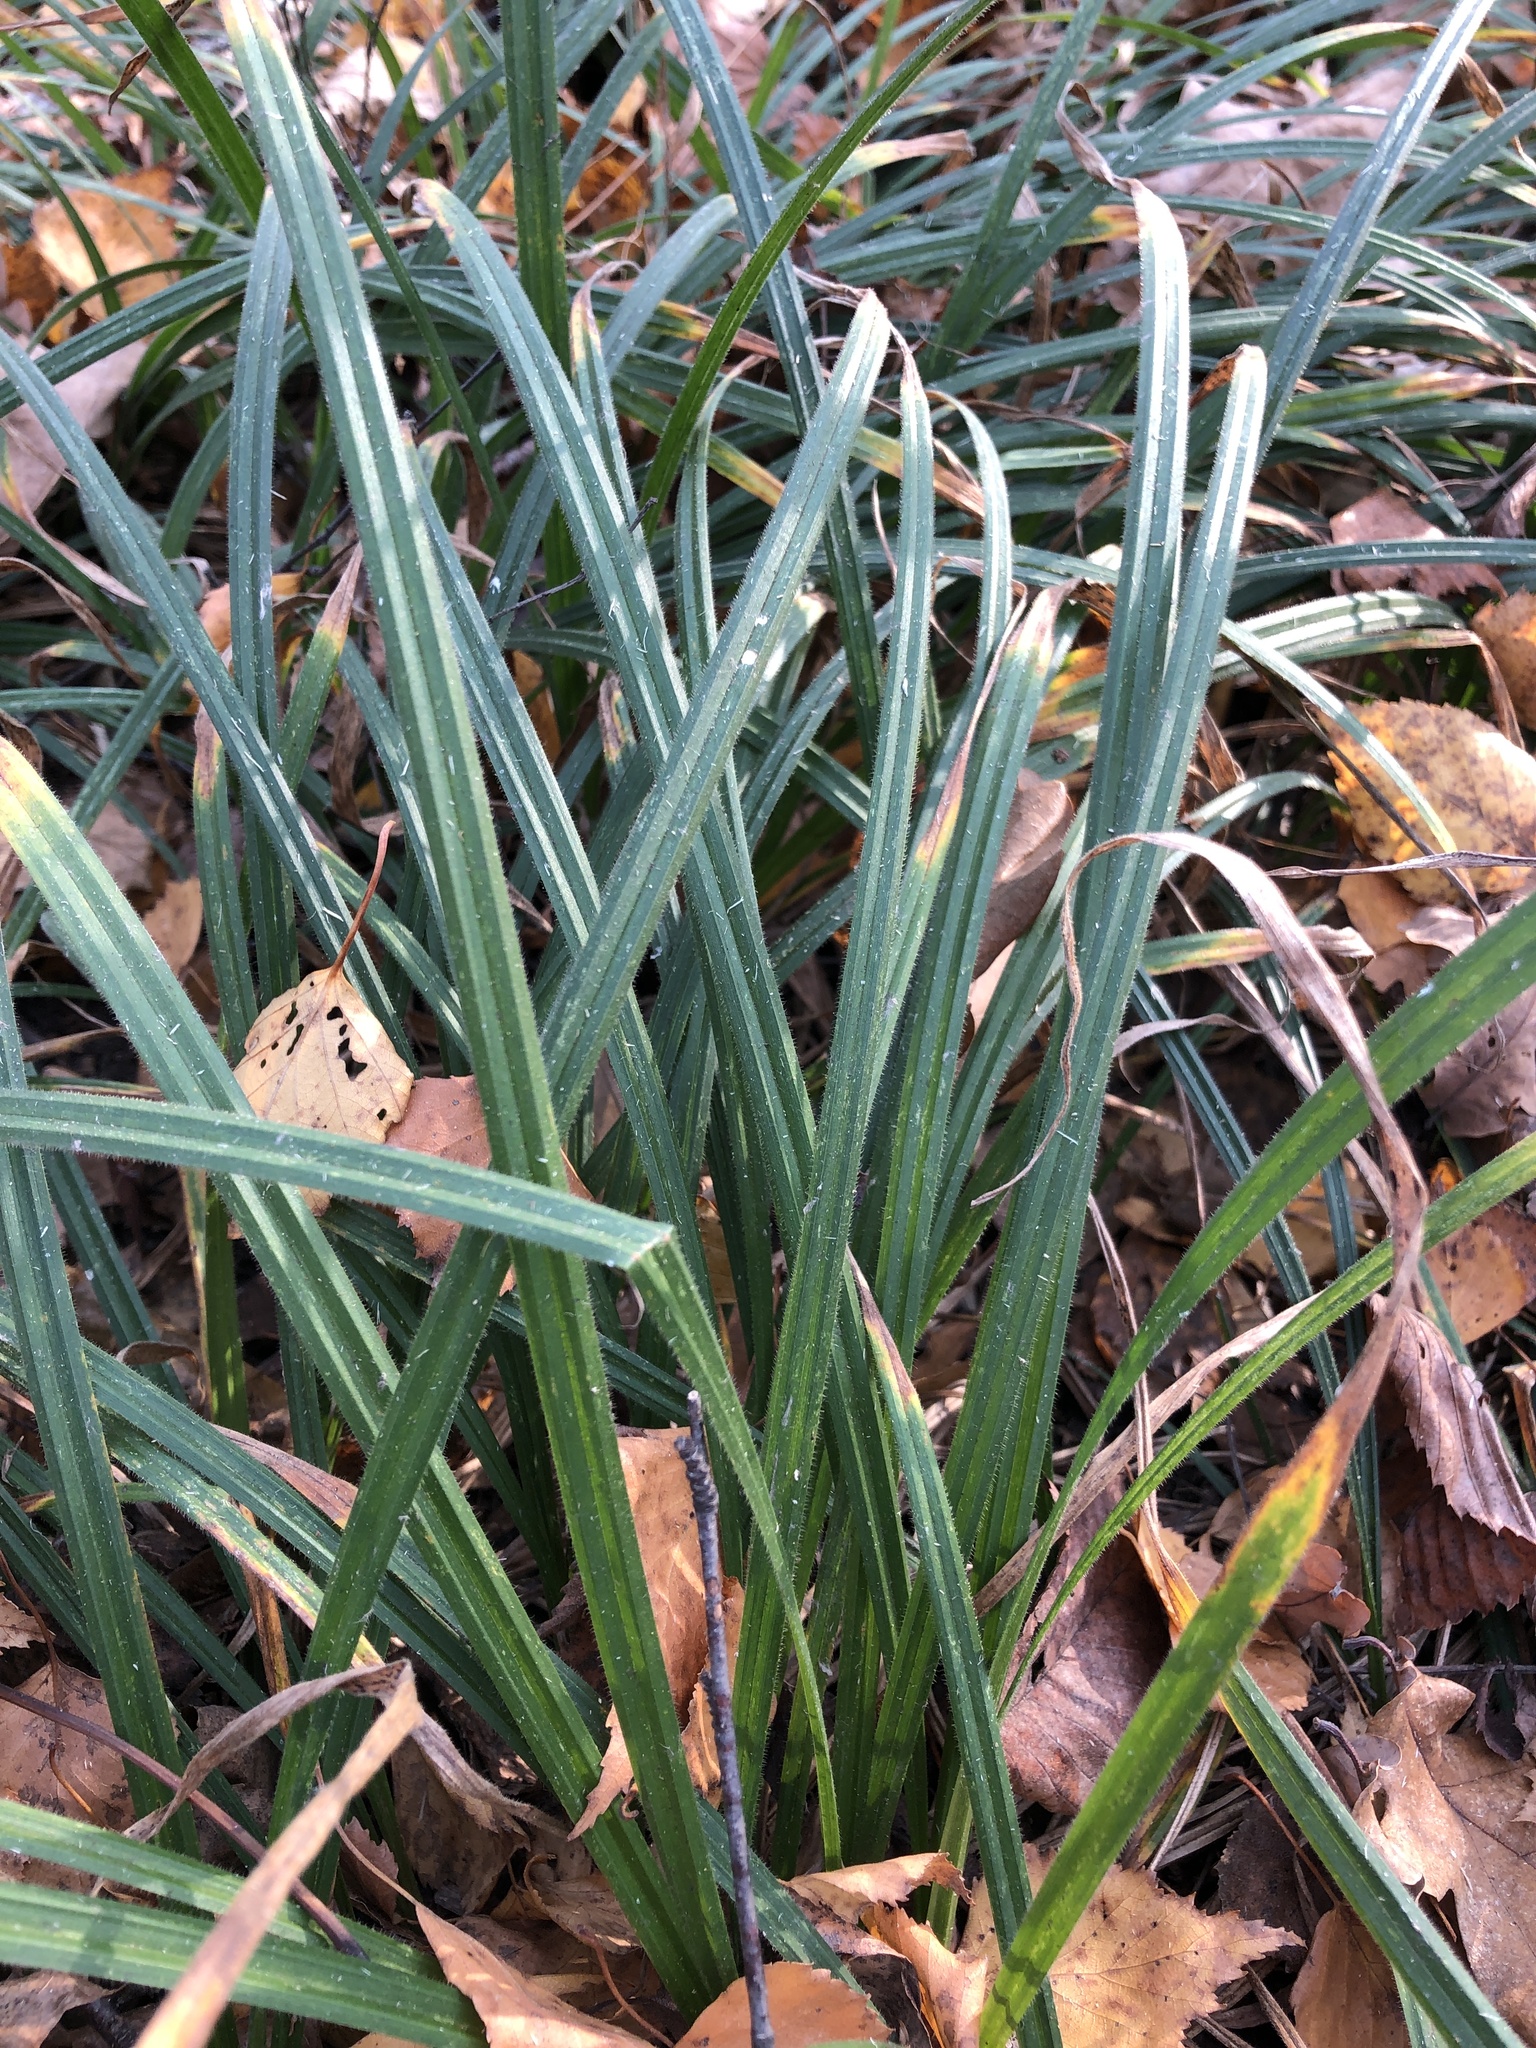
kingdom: Plantae
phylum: Tracheophyta
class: Liliopsida
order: Poales
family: Cyperaceae
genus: Carex
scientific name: Carex pilosa
